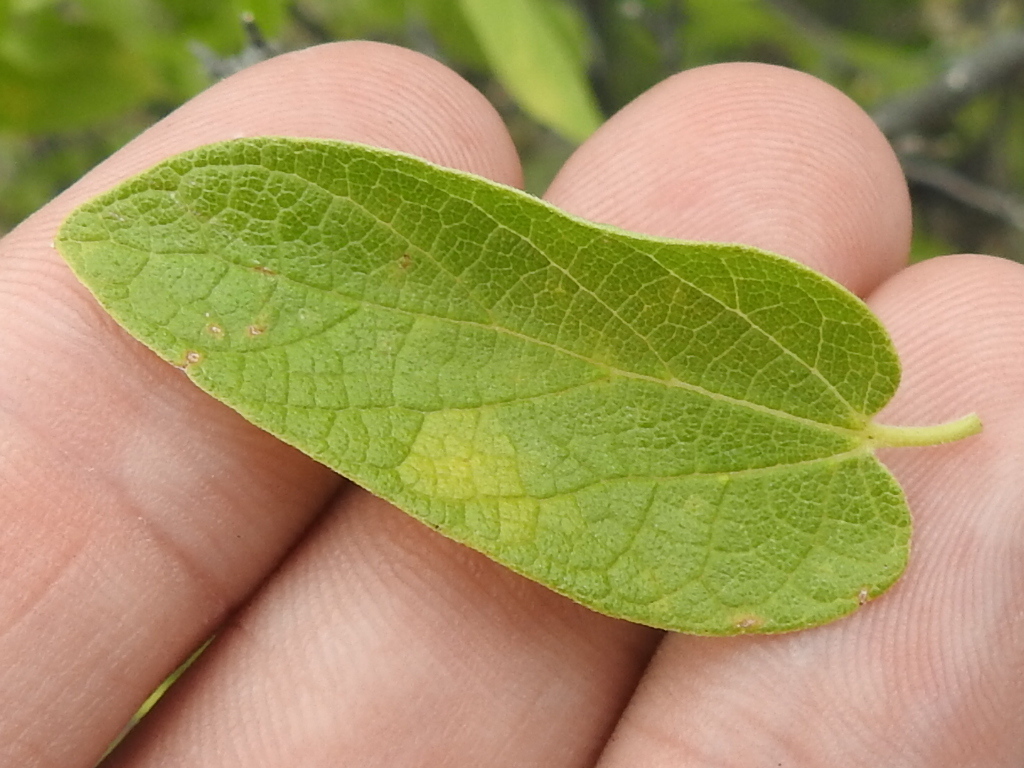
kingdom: Plantae
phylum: Tracheophyta
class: Magnoliopsida
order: Rosales
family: Cannabaceae
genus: Celtis
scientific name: Celtis reticulata
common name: Netleaf hackberry
